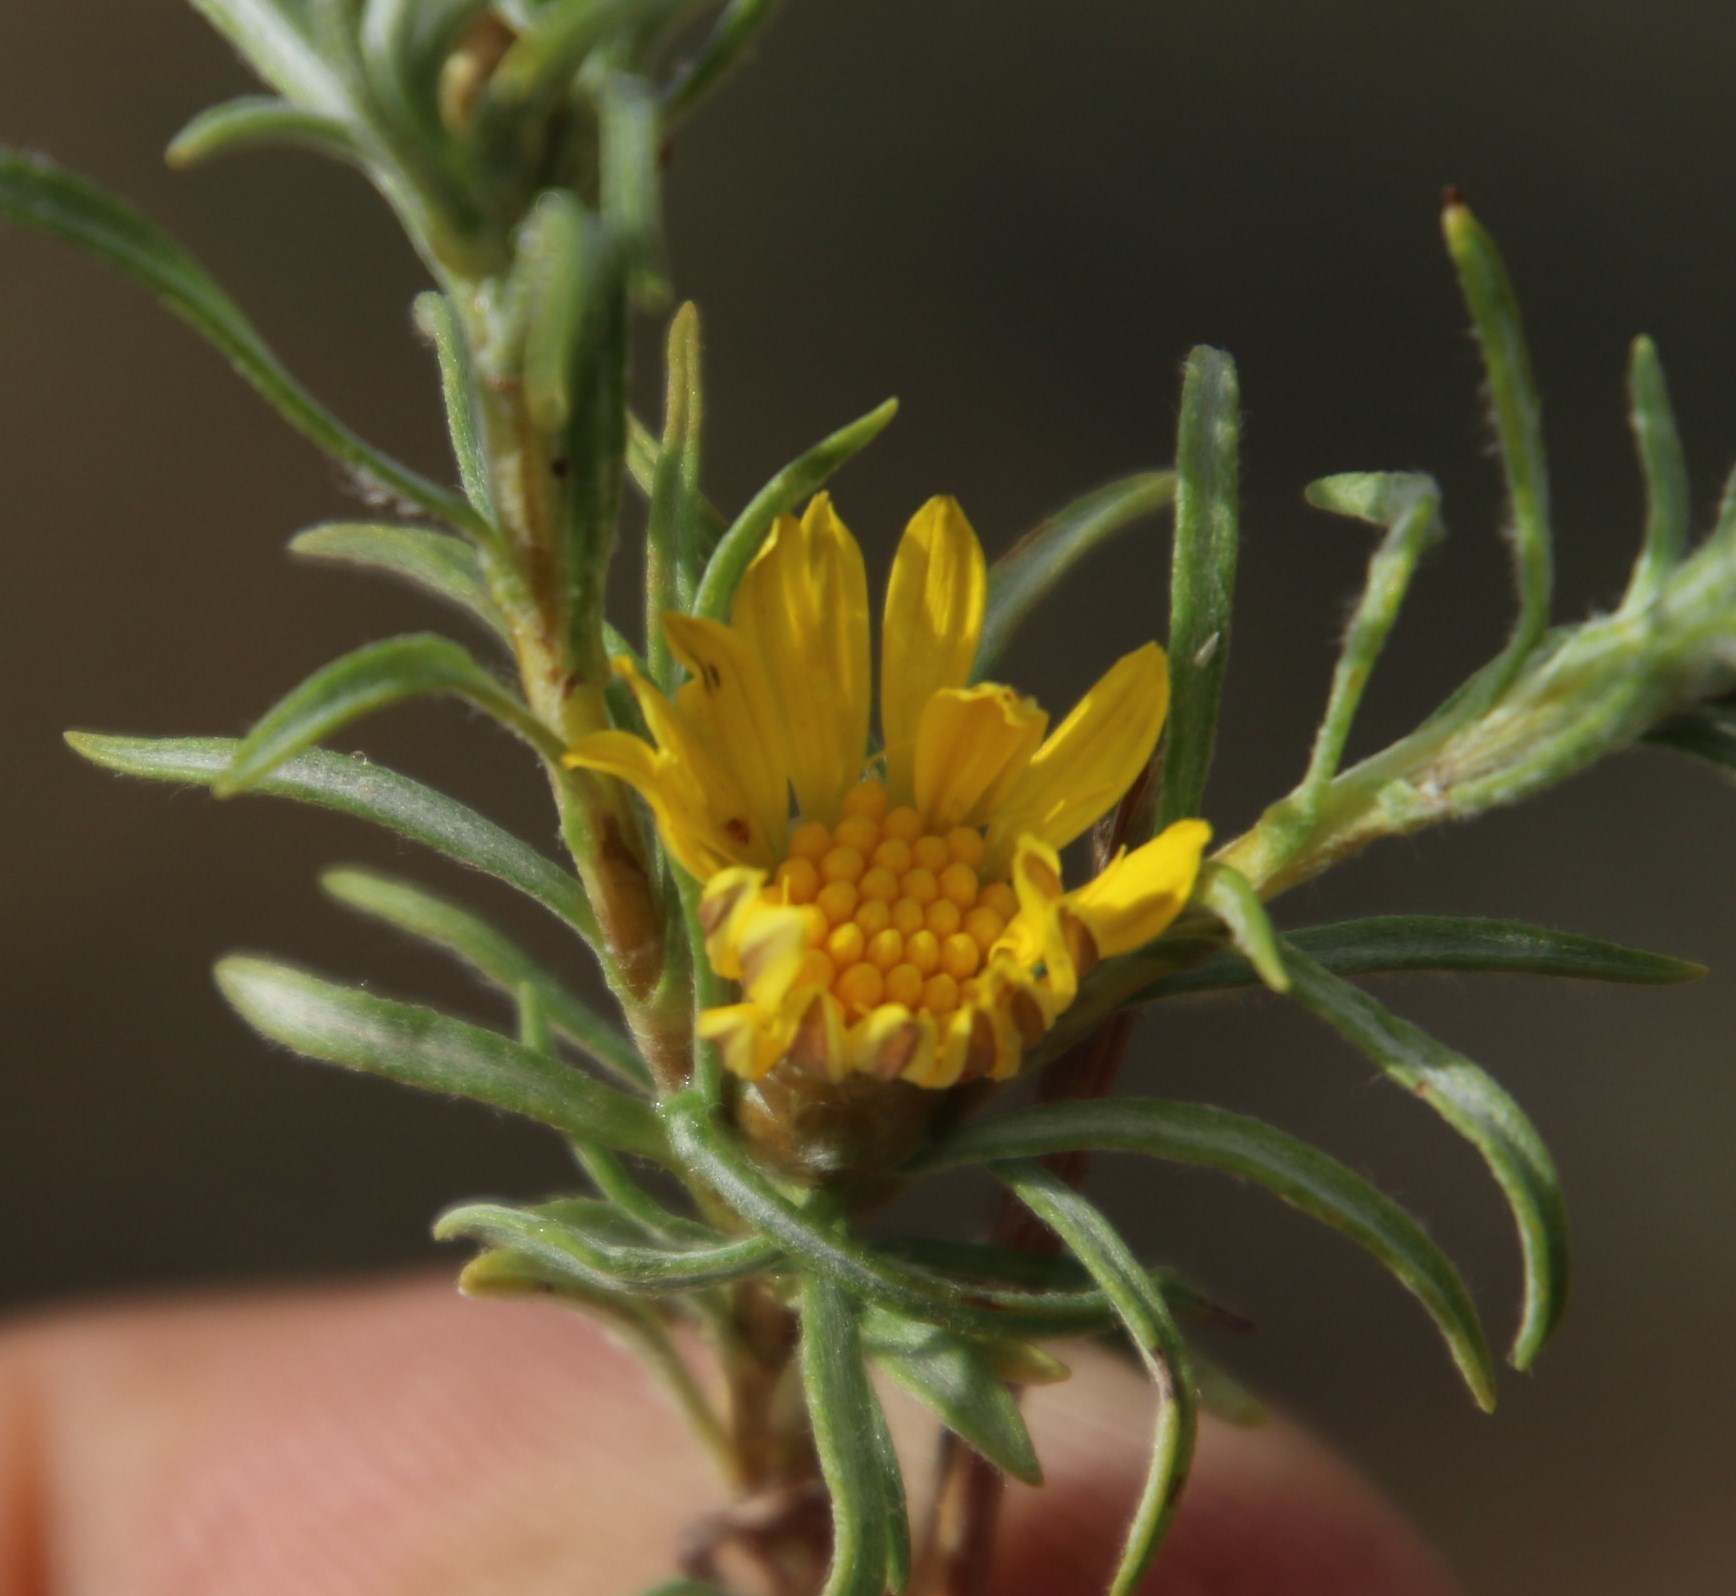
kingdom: Plantae
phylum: Tracheophyta
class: Magnoliopsida
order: Asterales
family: Asteraceae
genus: Oedera
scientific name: Oedera humilis
